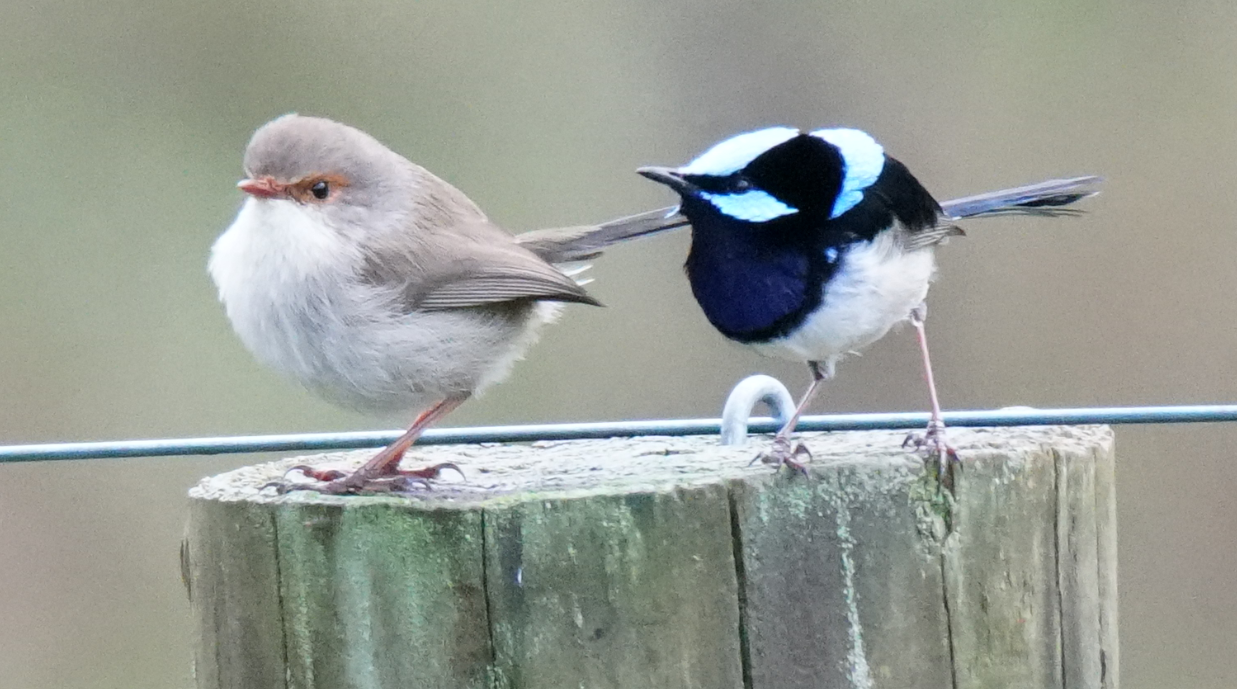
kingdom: Animalia
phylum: Chordata
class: Aves
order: Passeriformes
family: Maluridae
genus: Malurus
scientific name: Malurus cyaneus
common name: Superb fairywren
